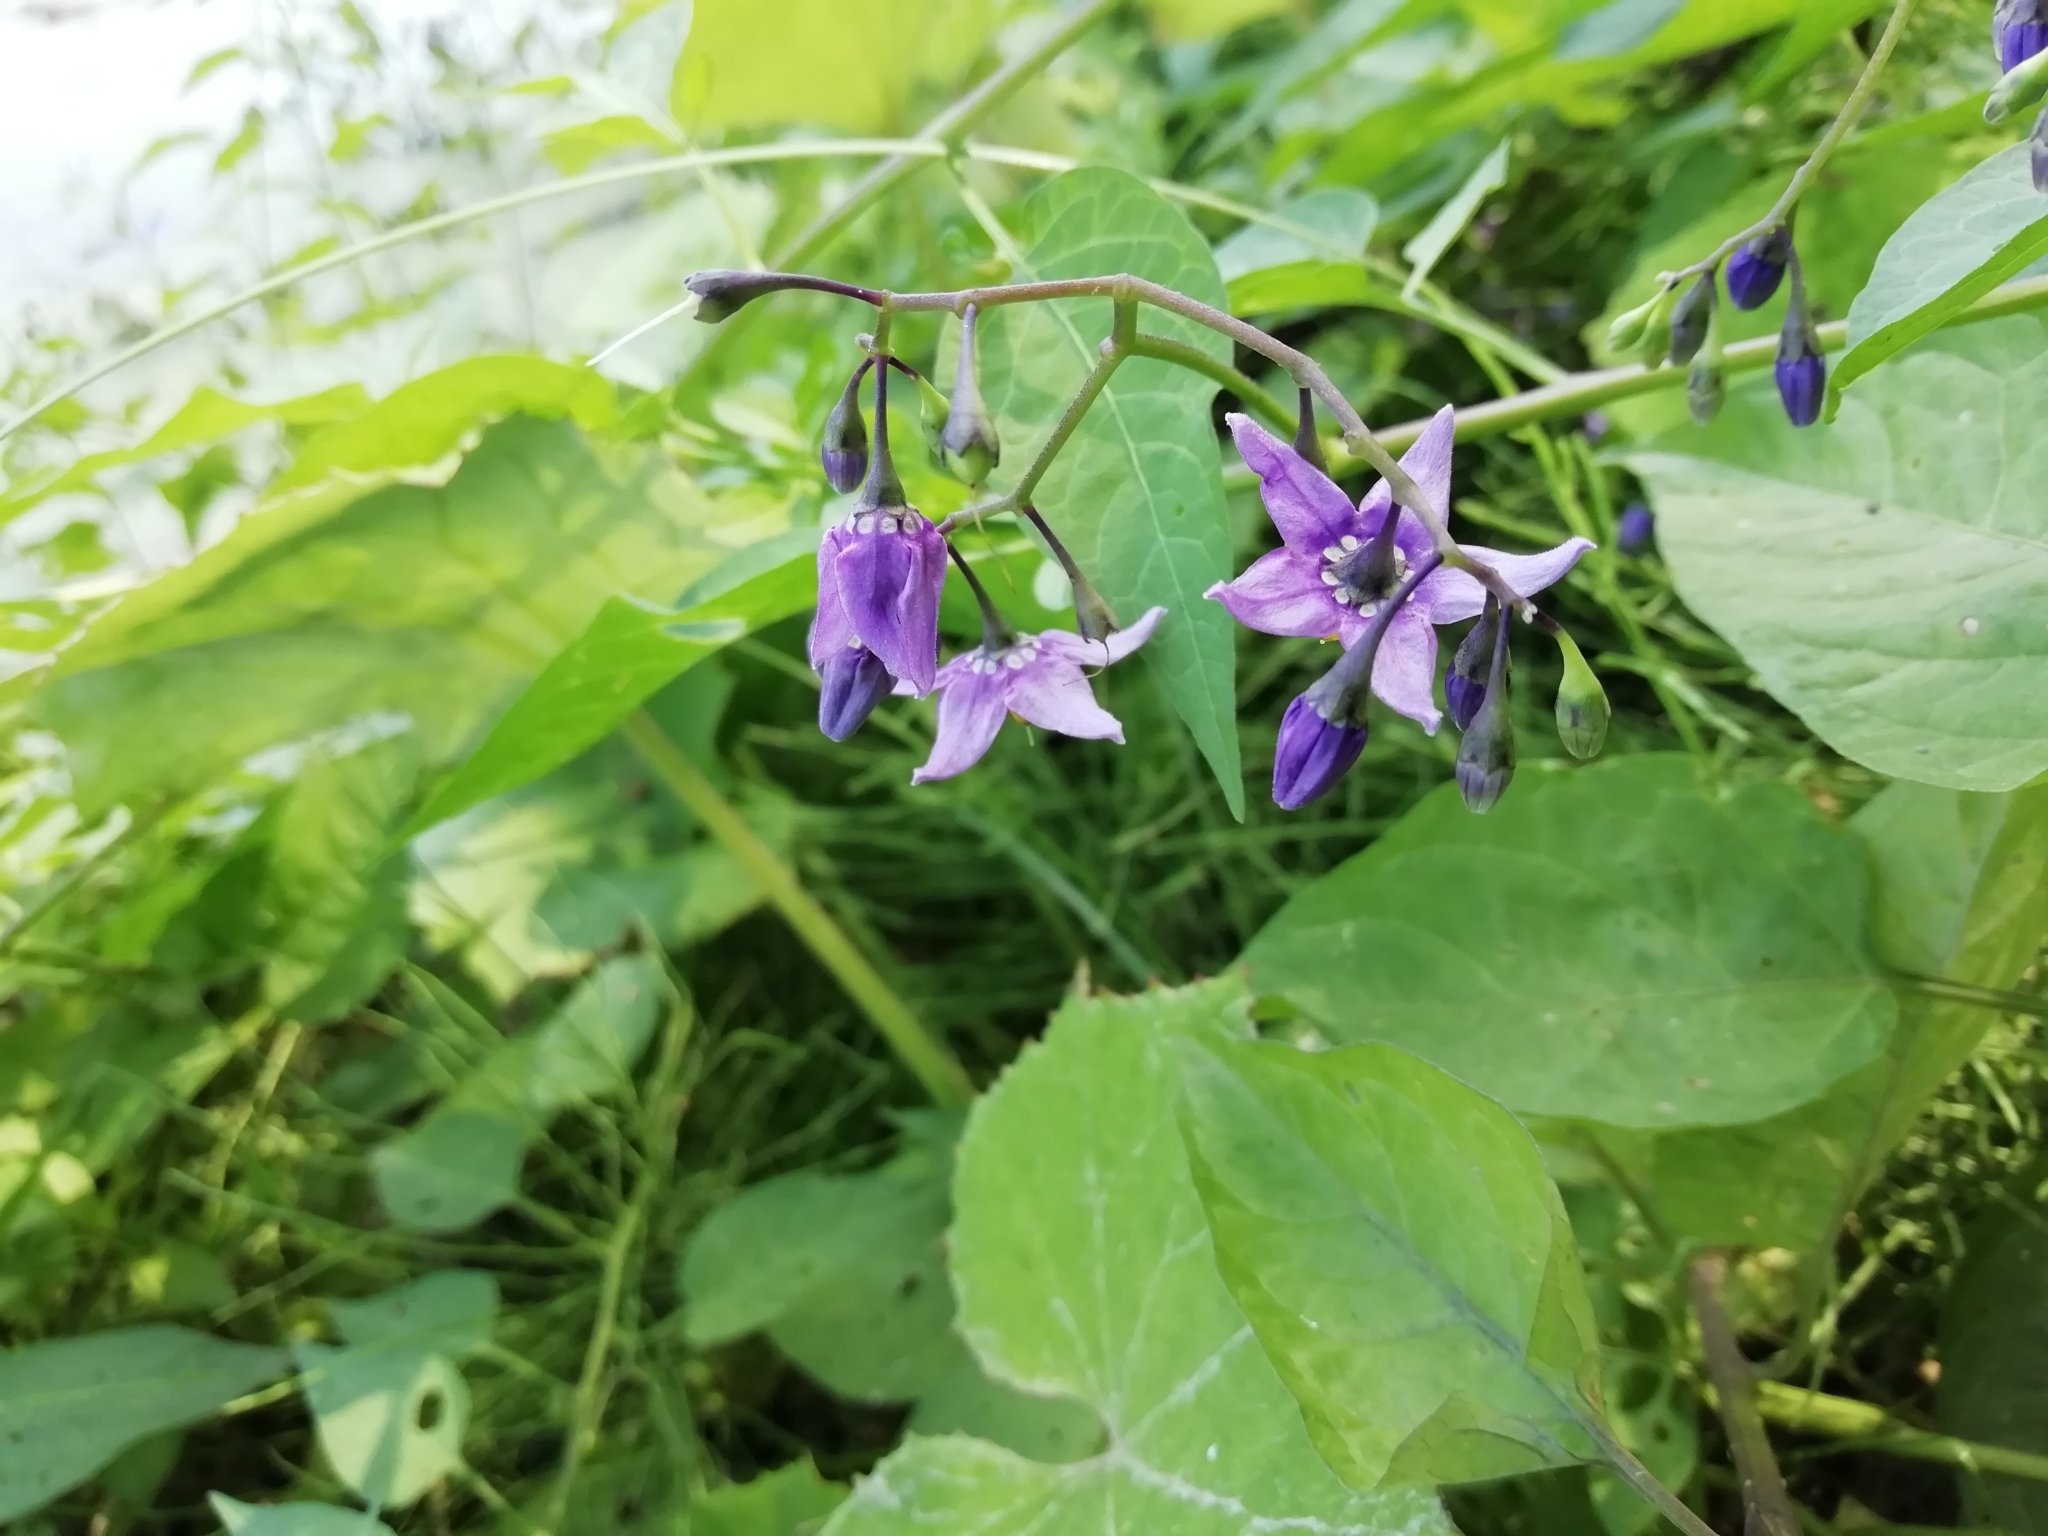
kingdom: Plantae
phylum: Tracheophyta
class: Magnoliopsida
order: Solanales
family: Solanaceae
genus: Solanum
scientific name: Solanum dulcamara
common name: Climbing nightshade
